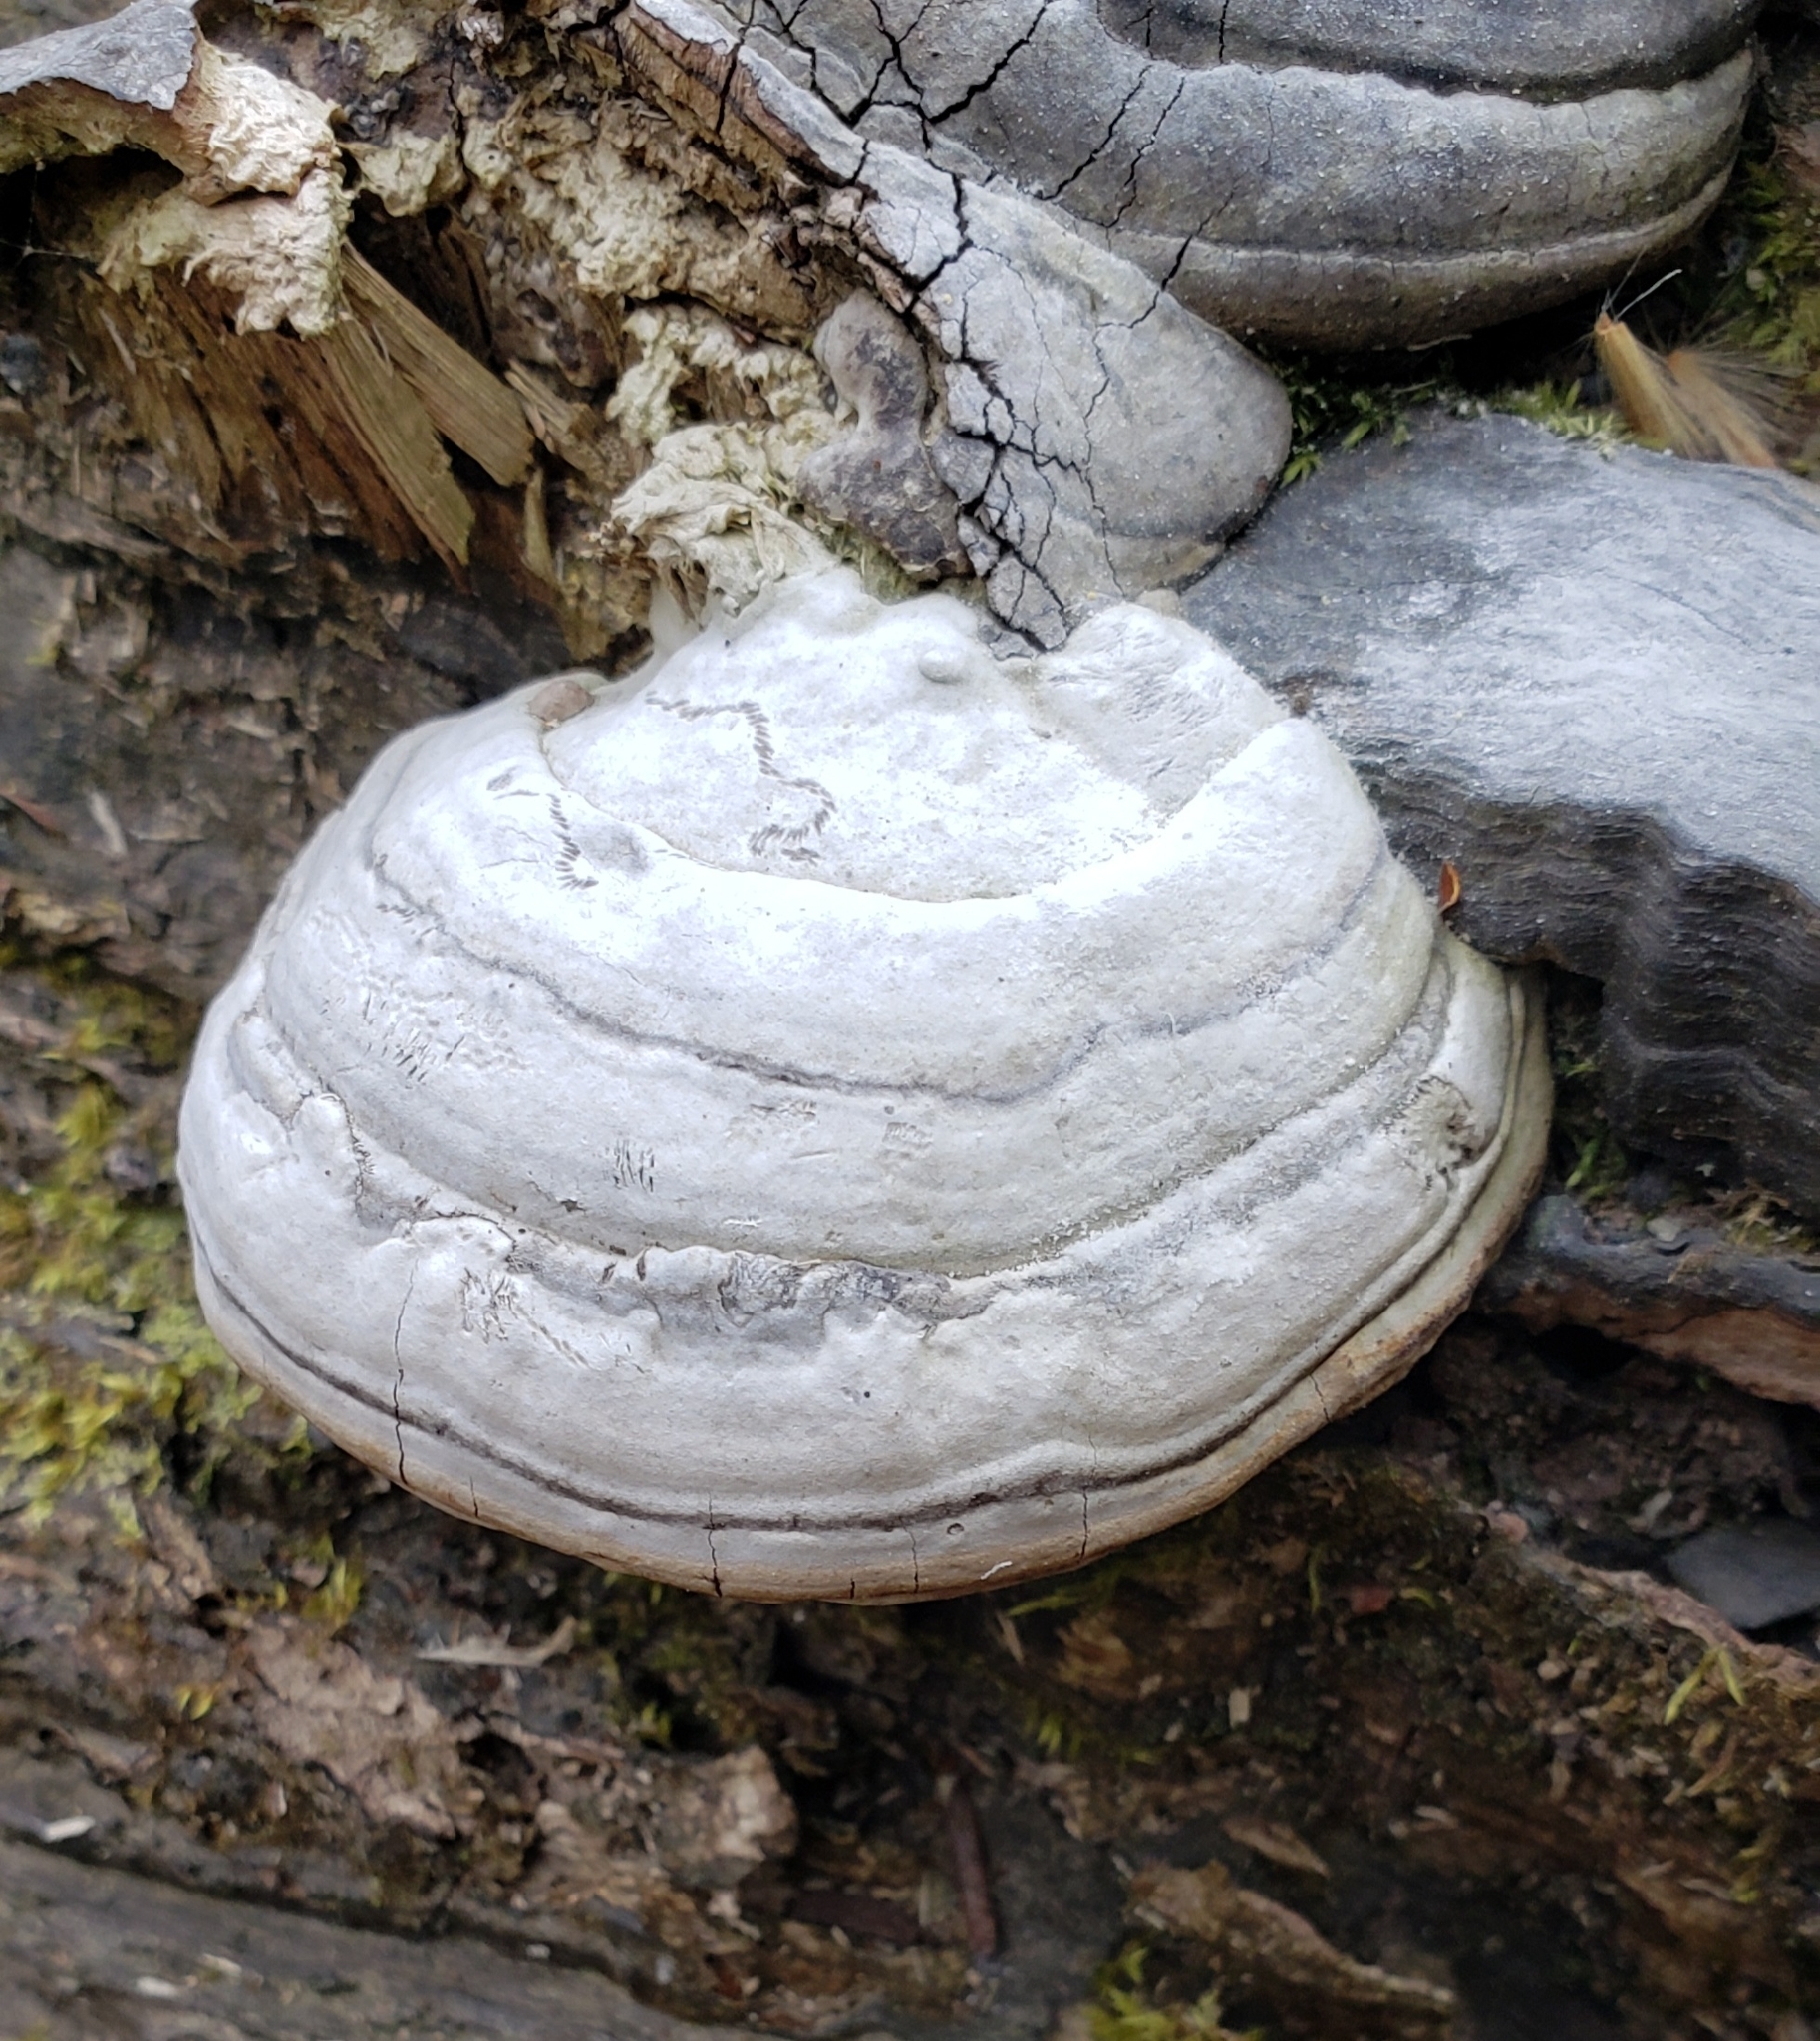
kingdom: Fungi
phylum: Basidiomycota
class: Agaricomycetes
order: Polyporales
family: Polyporaceae
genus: Fomes
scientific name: Fomes fomentarius
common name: Hoof fungus
